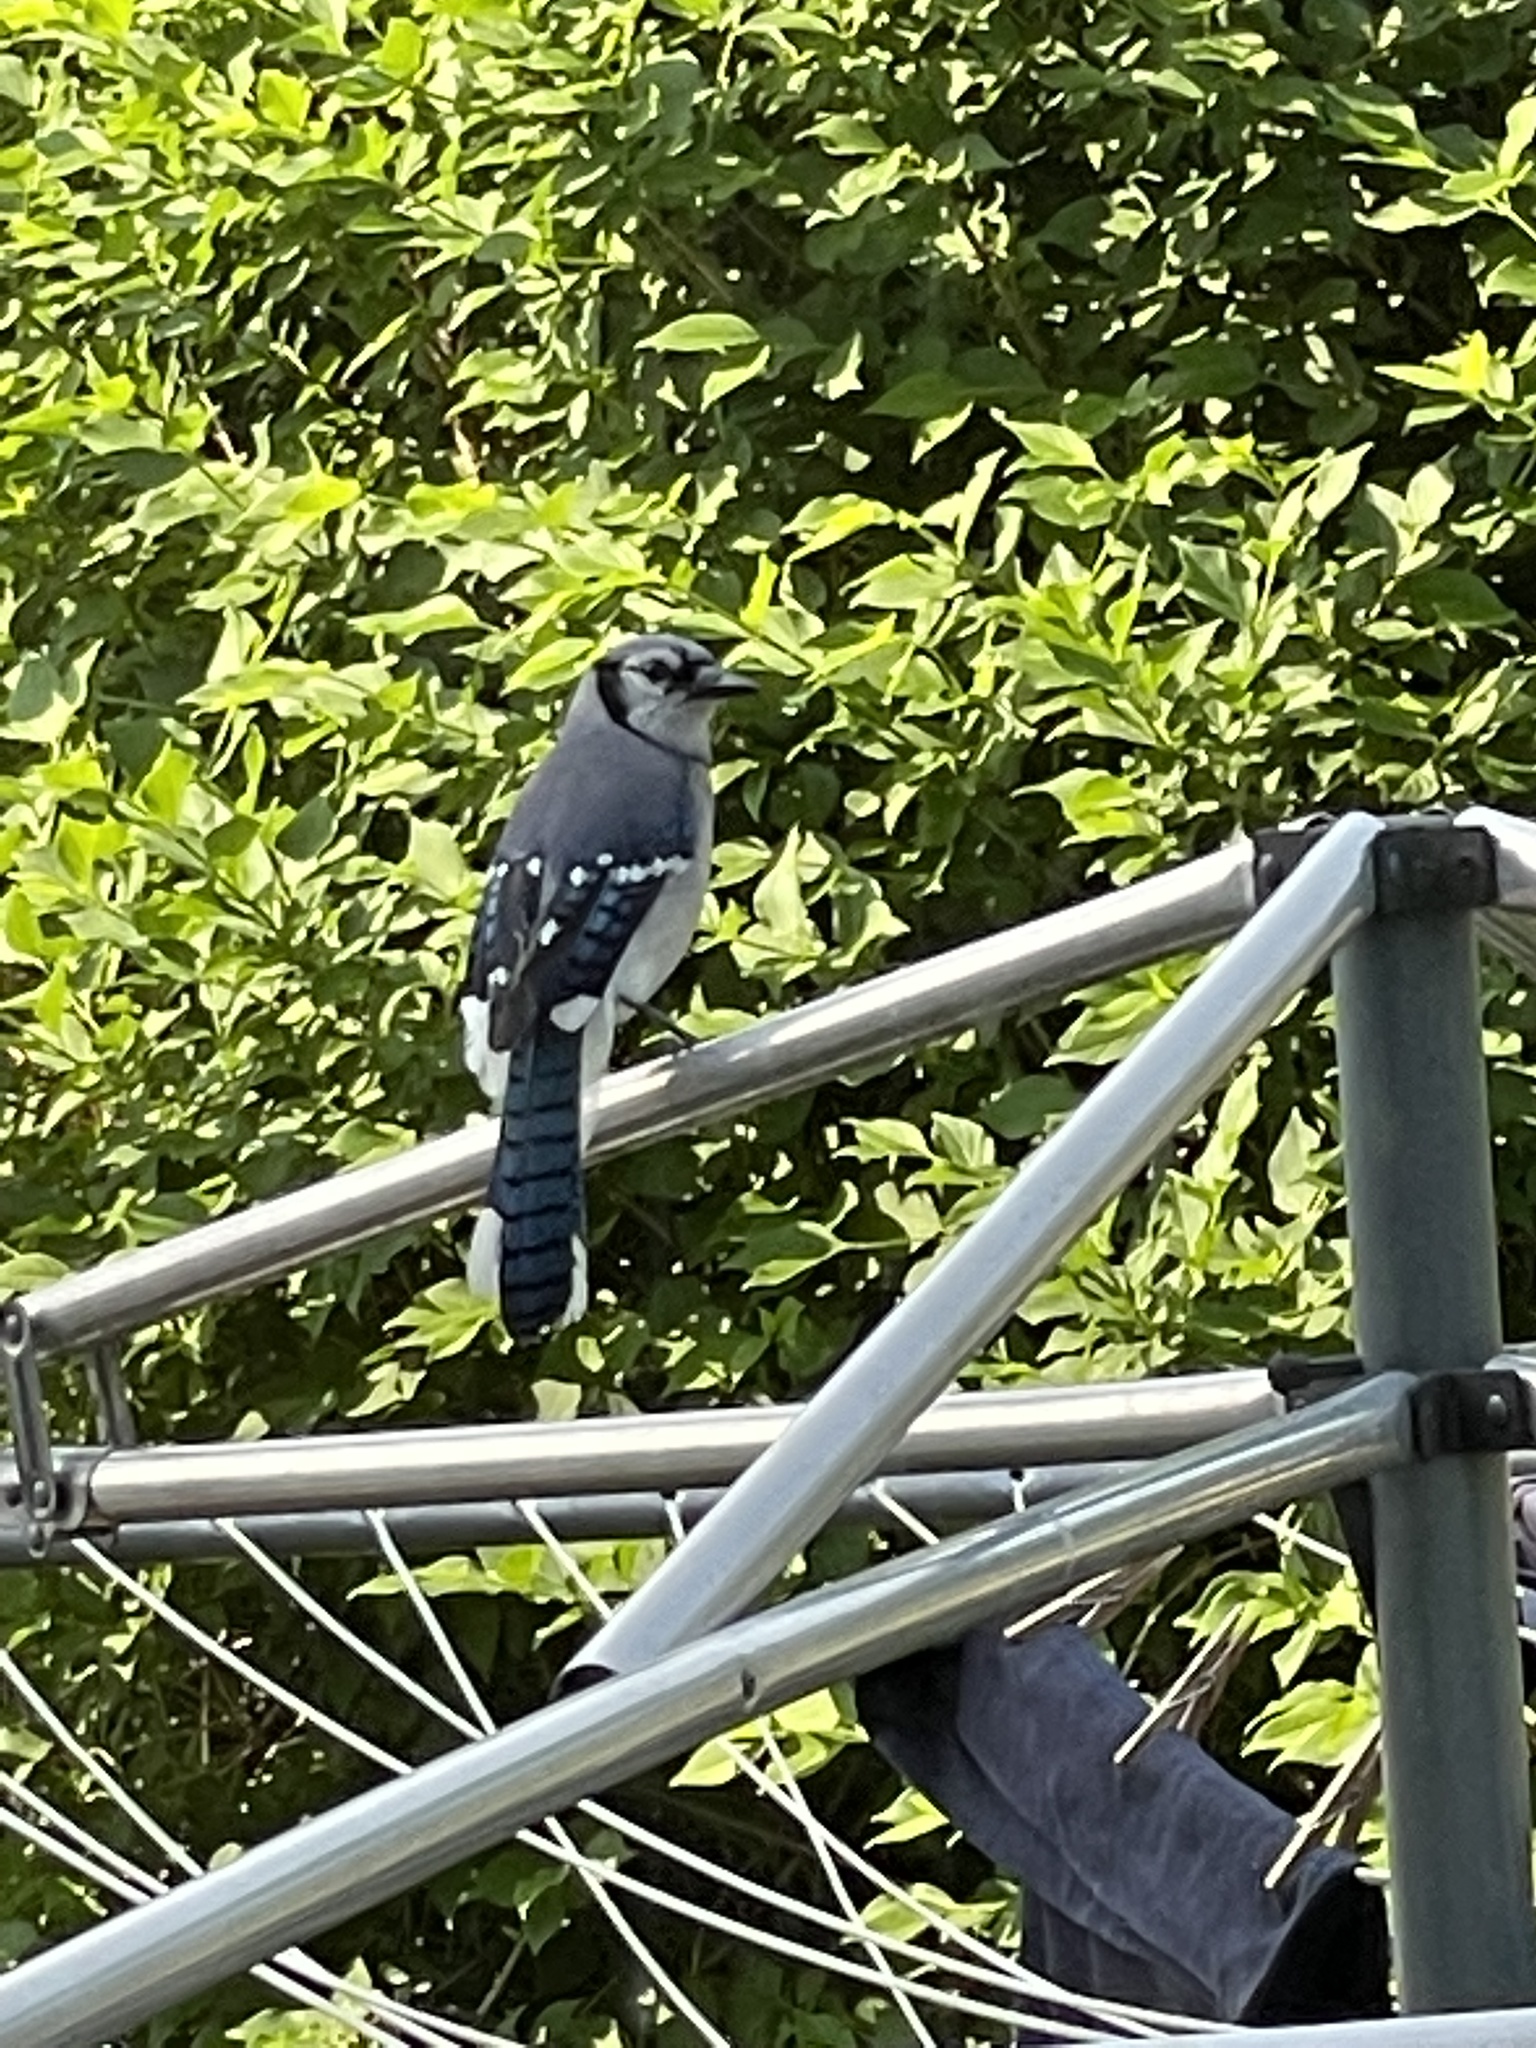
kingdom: Animalia
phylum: Chordata
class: Aves
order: Passeriformes
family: Corvidae
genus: Cyanocitta
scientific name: Cyanocitta cristata
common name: Blue jay
